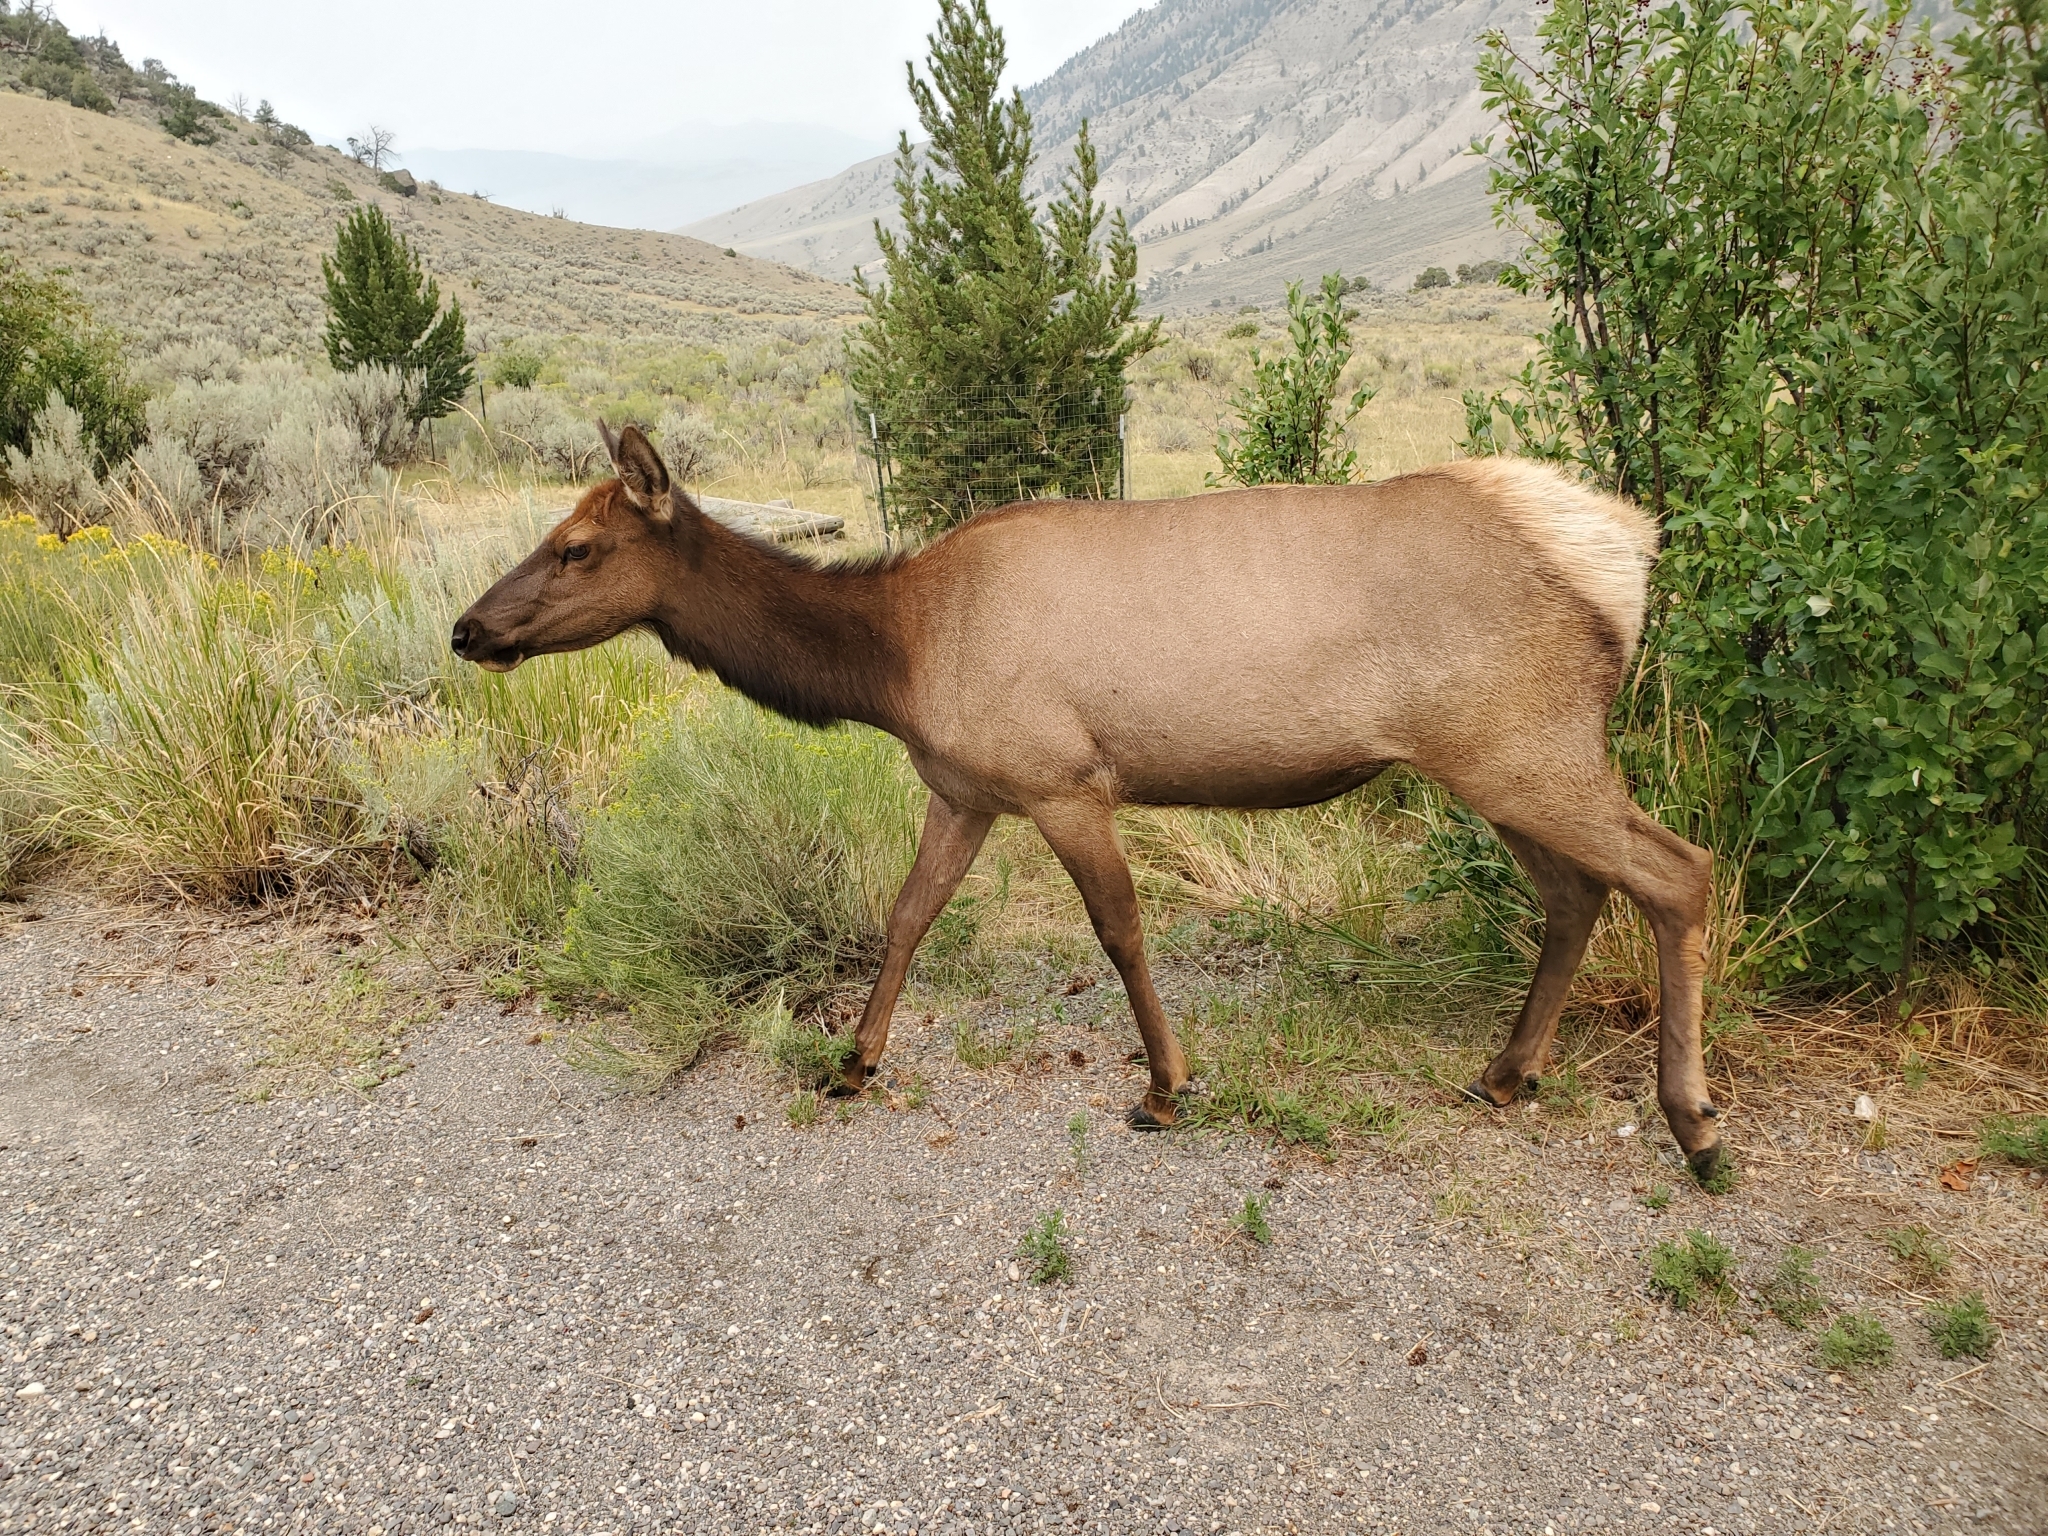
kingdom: Animalia
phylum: Chordata
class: Mammalia
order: Artiodactyla
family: Cervidae
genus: Cervus
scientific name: Cervus elaphus
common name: Red deer
